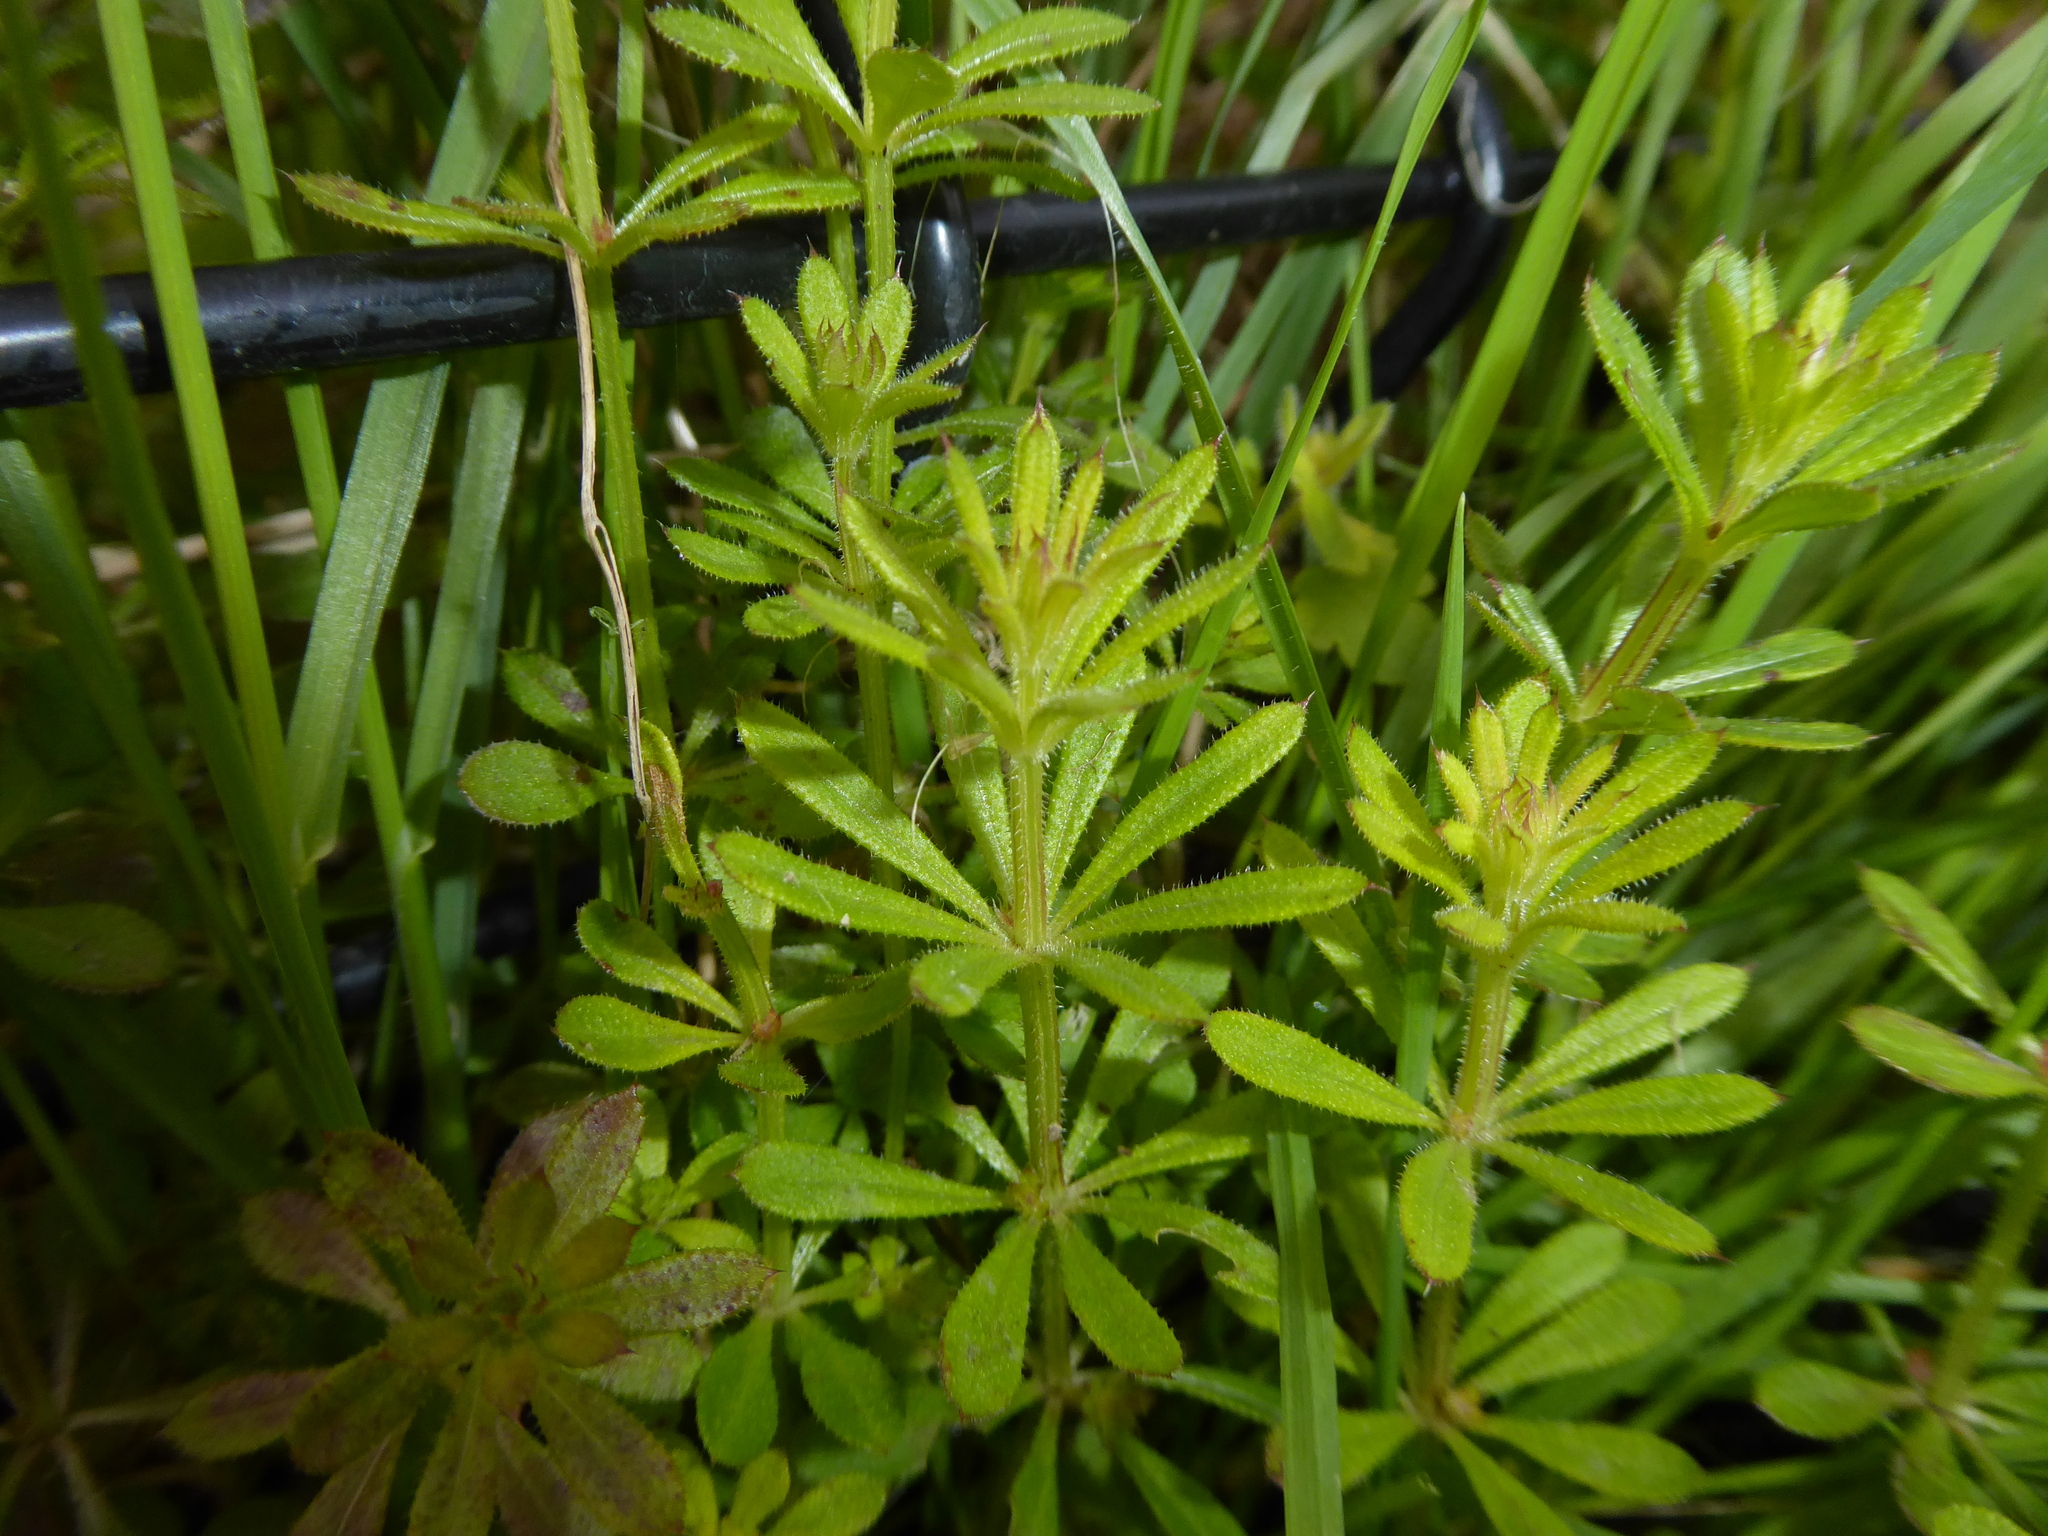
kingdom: Plantae
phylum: Tracheophyta
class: Magnoliopsida
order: Gentianales
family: Rubiaceae
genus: Galium
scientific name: Galium aparine
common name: Cleavers
